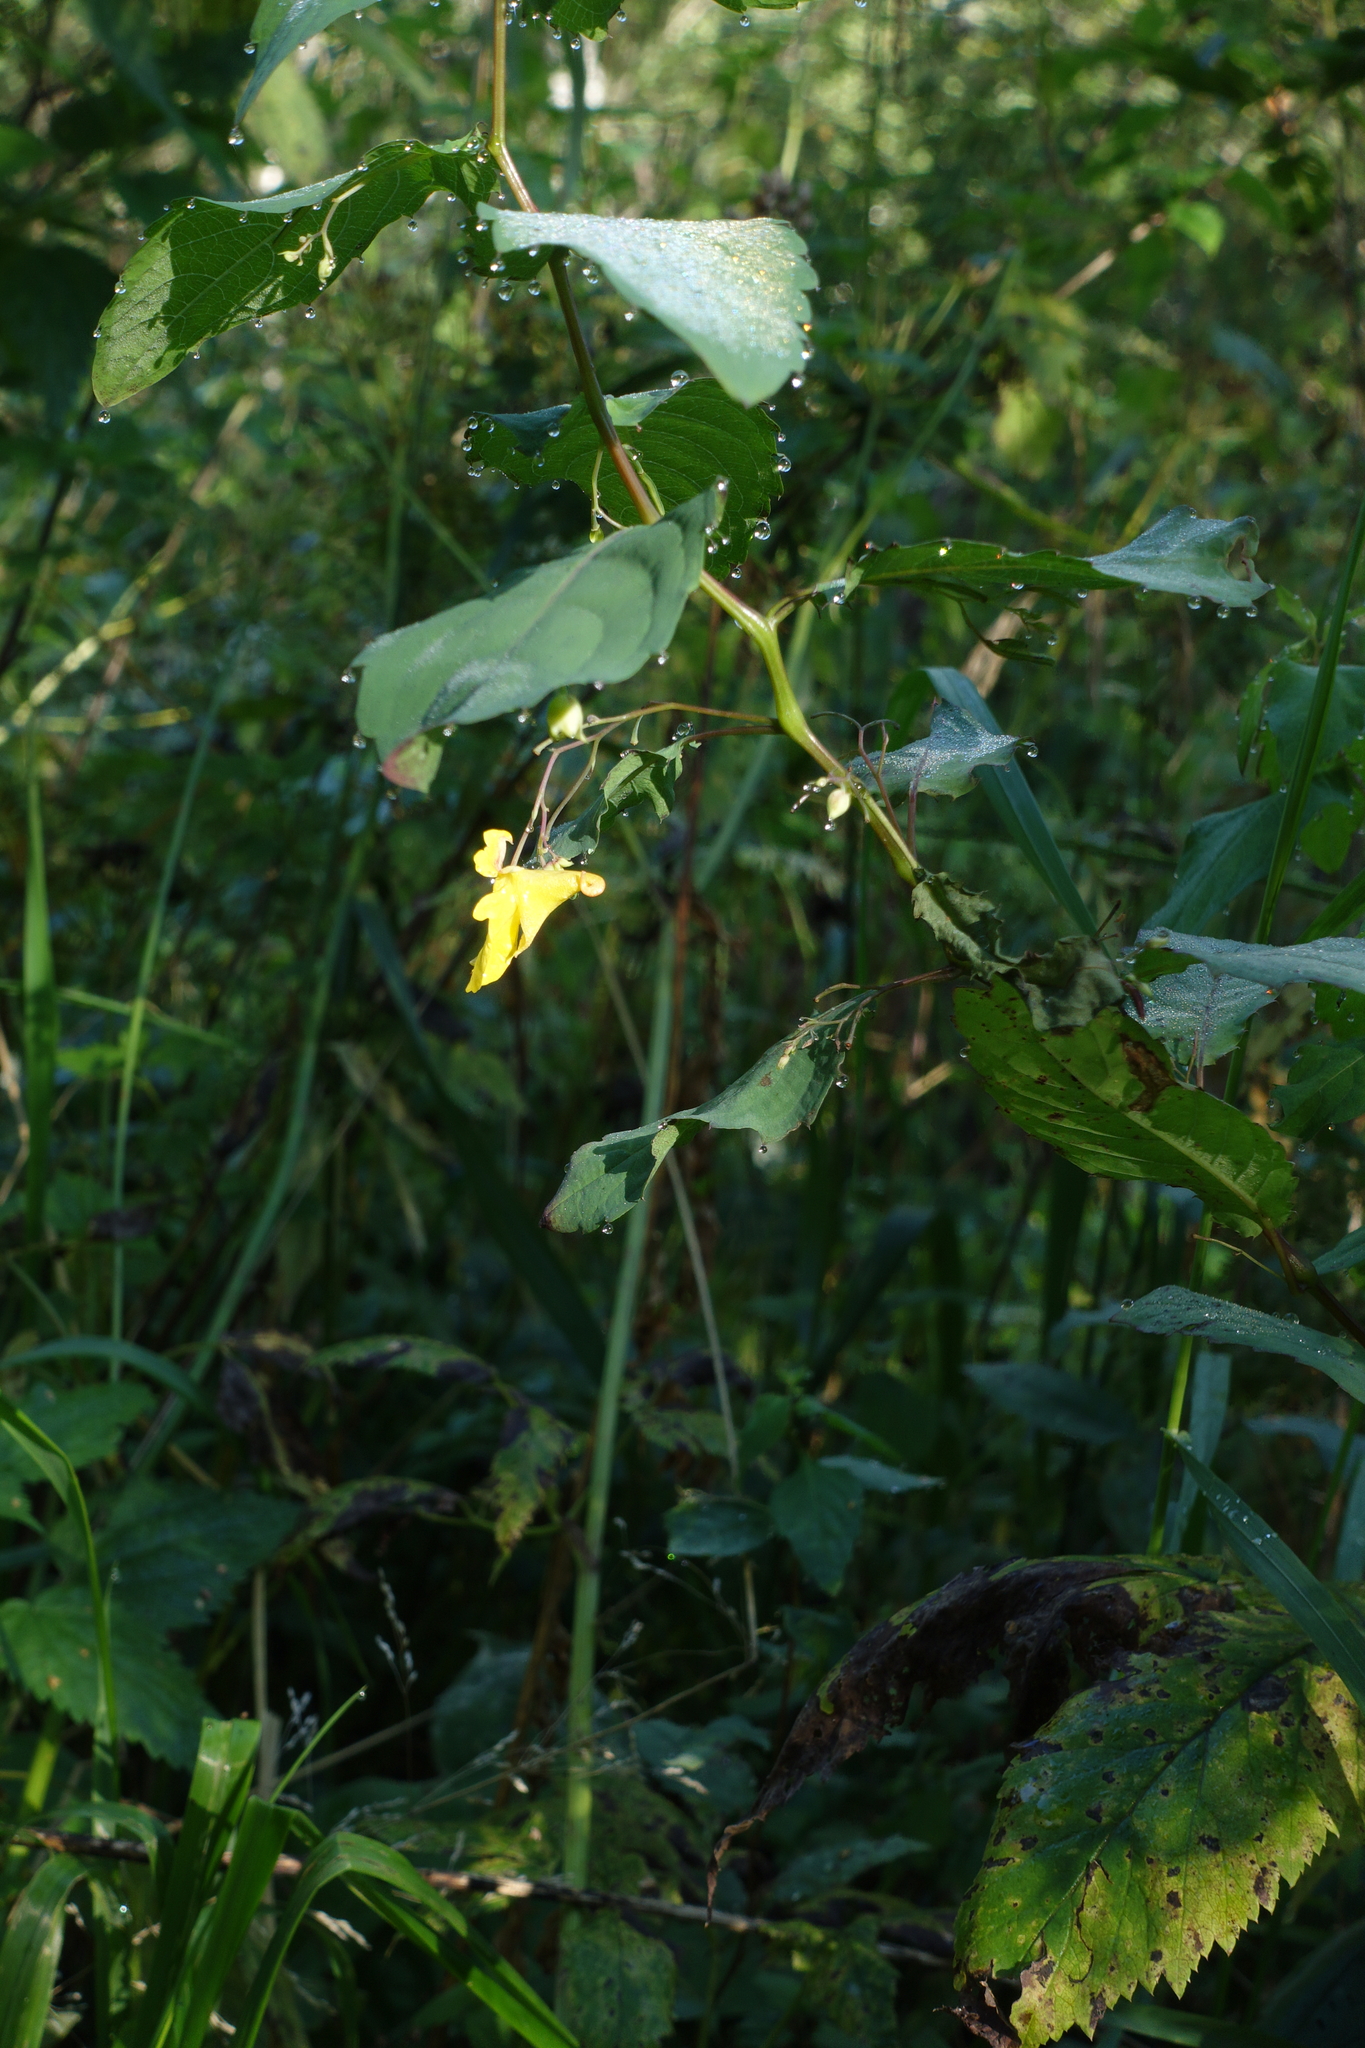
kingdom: Plantae
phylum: Tracheophyta
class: Magnoliopsida
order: Ericales
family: Balsaminaceae
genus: Impatiens
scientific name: Impatiens noli-tangere
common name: Touch-me-not balsam
